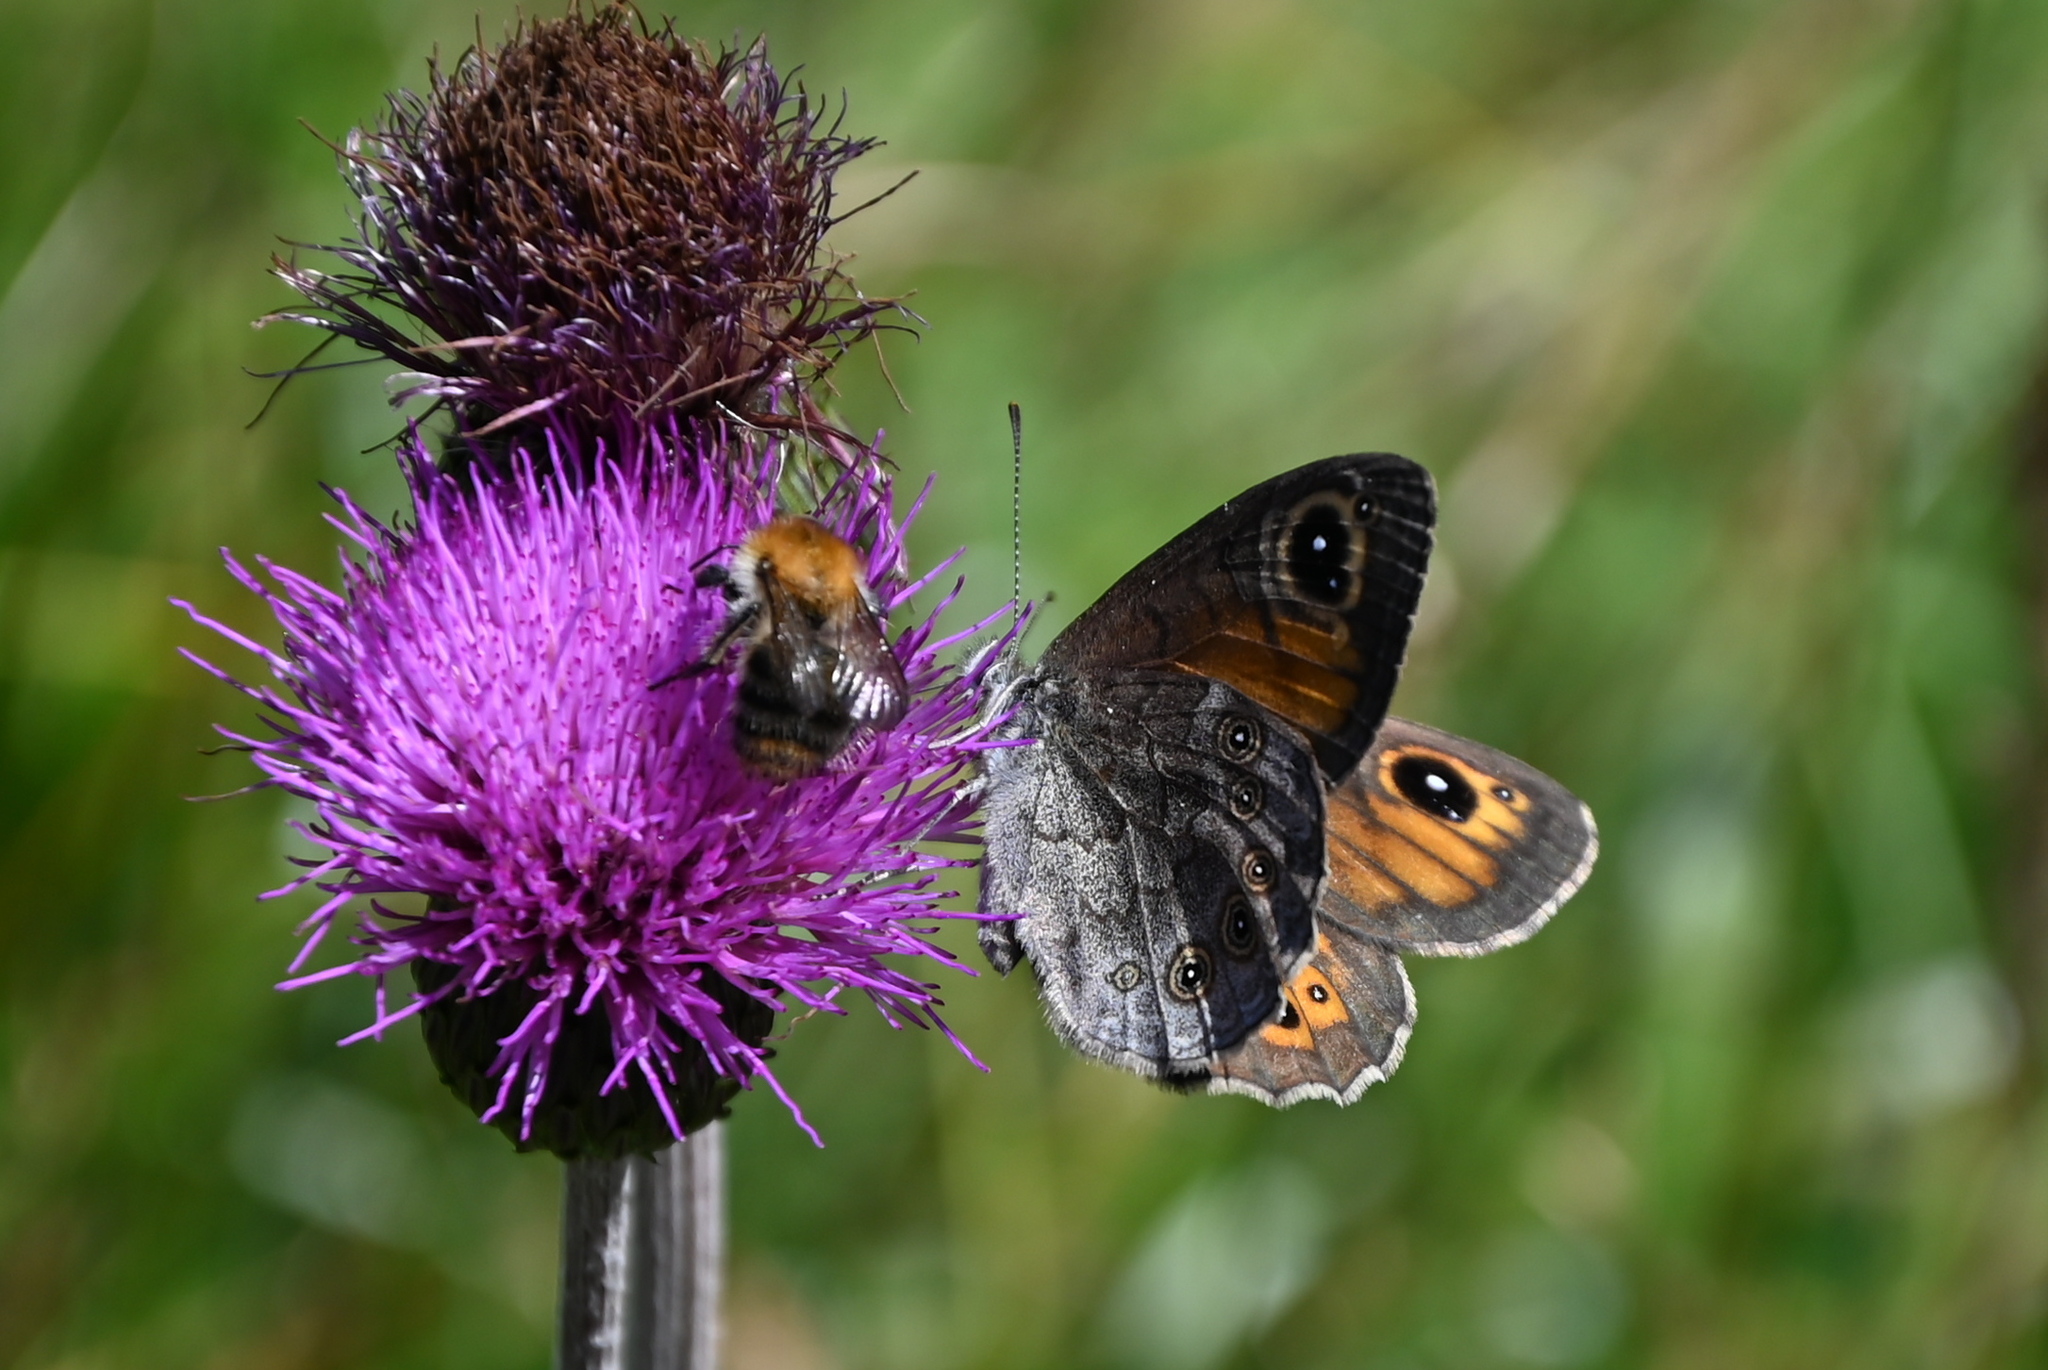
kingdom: Animalia
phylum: Arthropoda
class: Insecta
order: Lepidoptera
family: Nymphalidae
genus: Pararge
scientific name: Pararge Lasiommata maera
